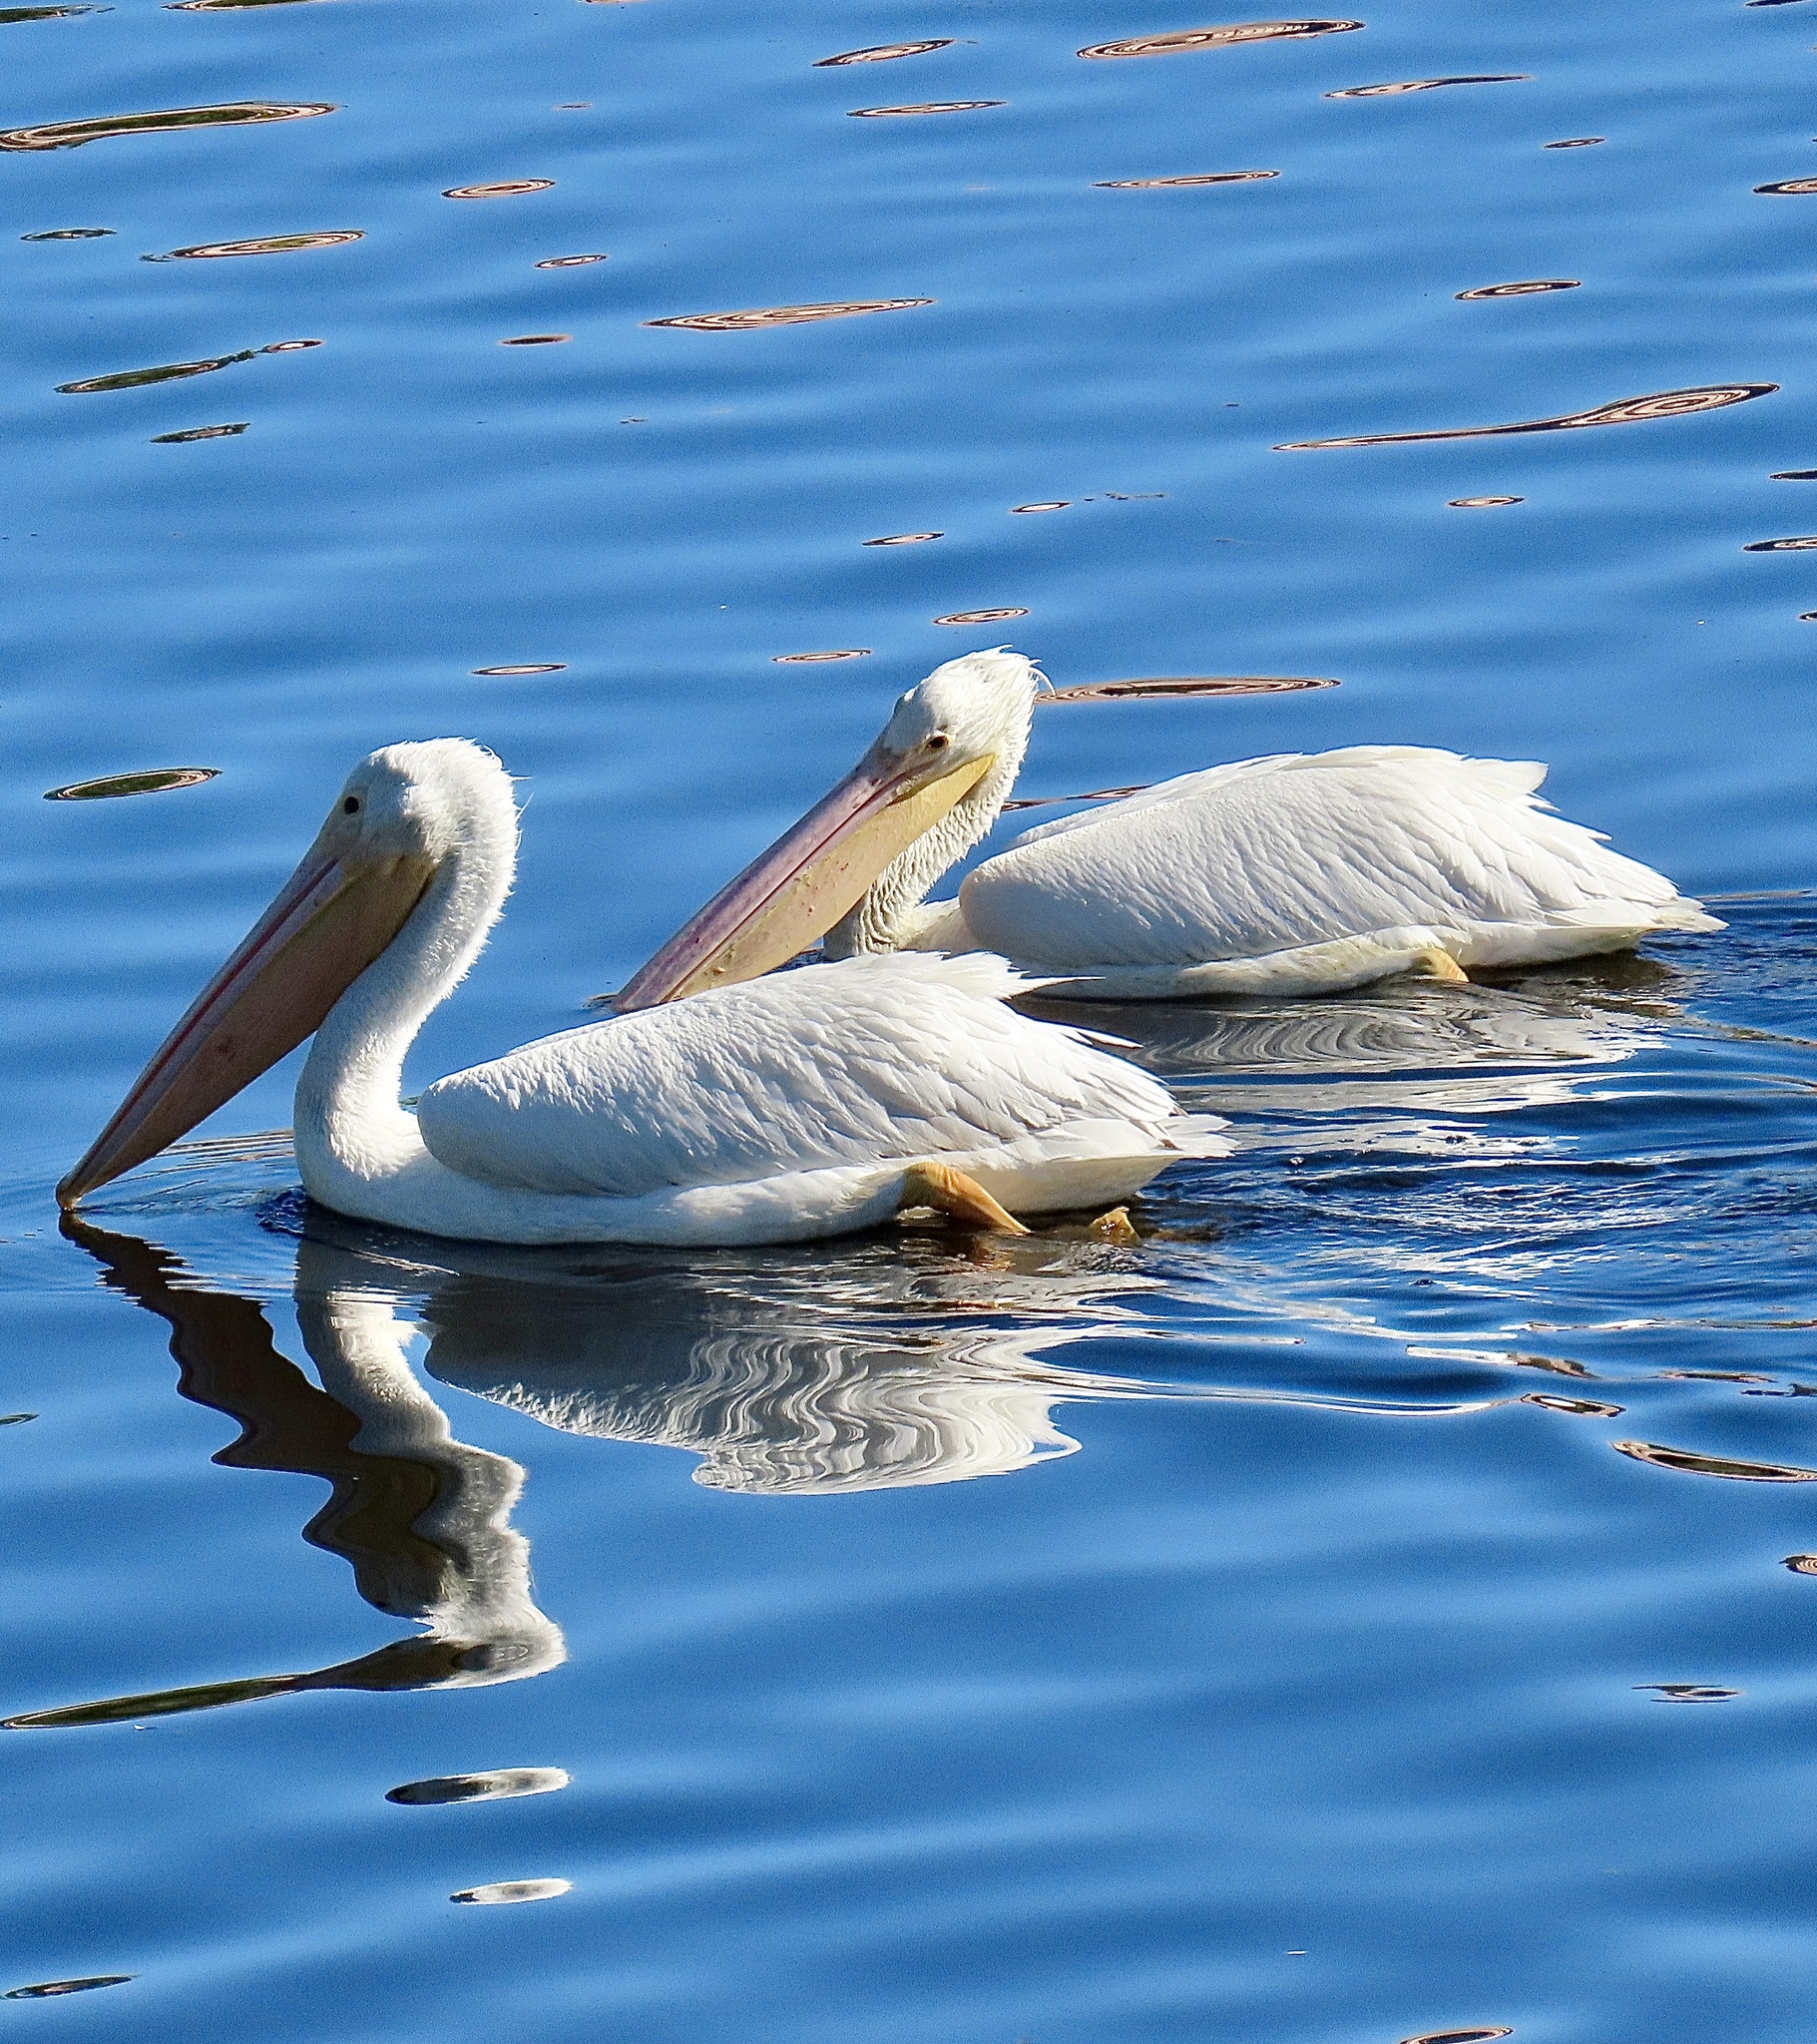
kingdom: Animalia
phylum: Chordata
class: Aves
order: Pelecaniformes
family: Pelecanidae
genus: Pelecanus
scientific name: Pelecanus erythrorhynchos
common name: American white pelican
